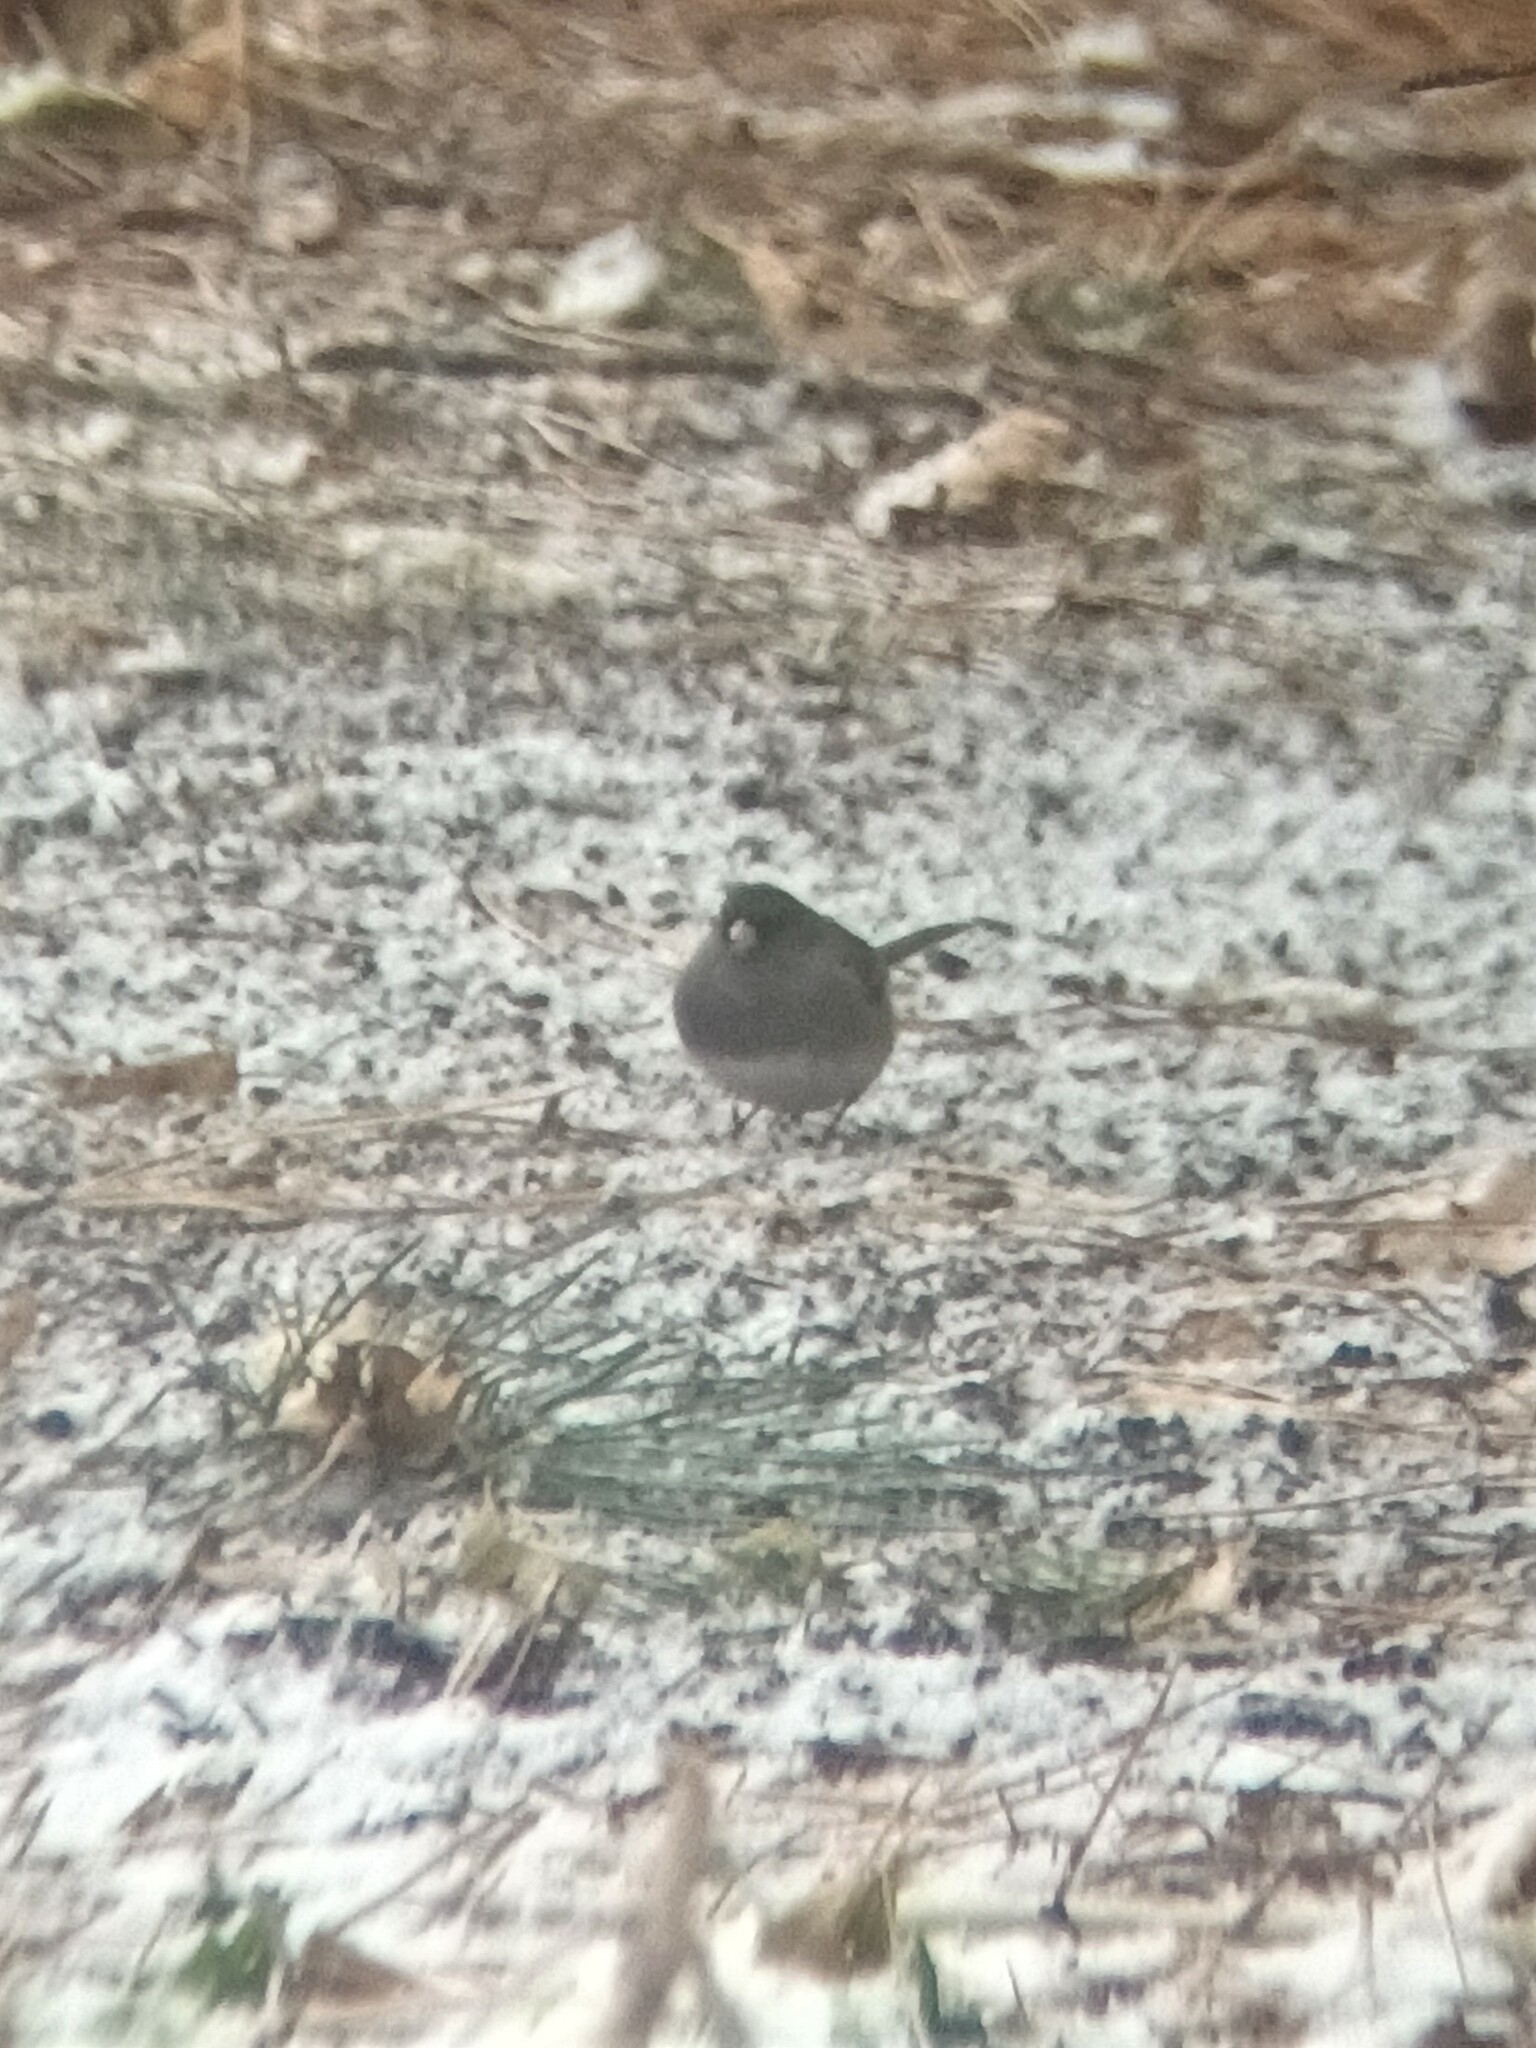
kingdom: Animalia
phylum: Chordata
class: Aves
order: Passeriformes
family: Passerellidae
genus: Junco
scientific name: Junco hyemalis
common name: Dark-eyed junco
